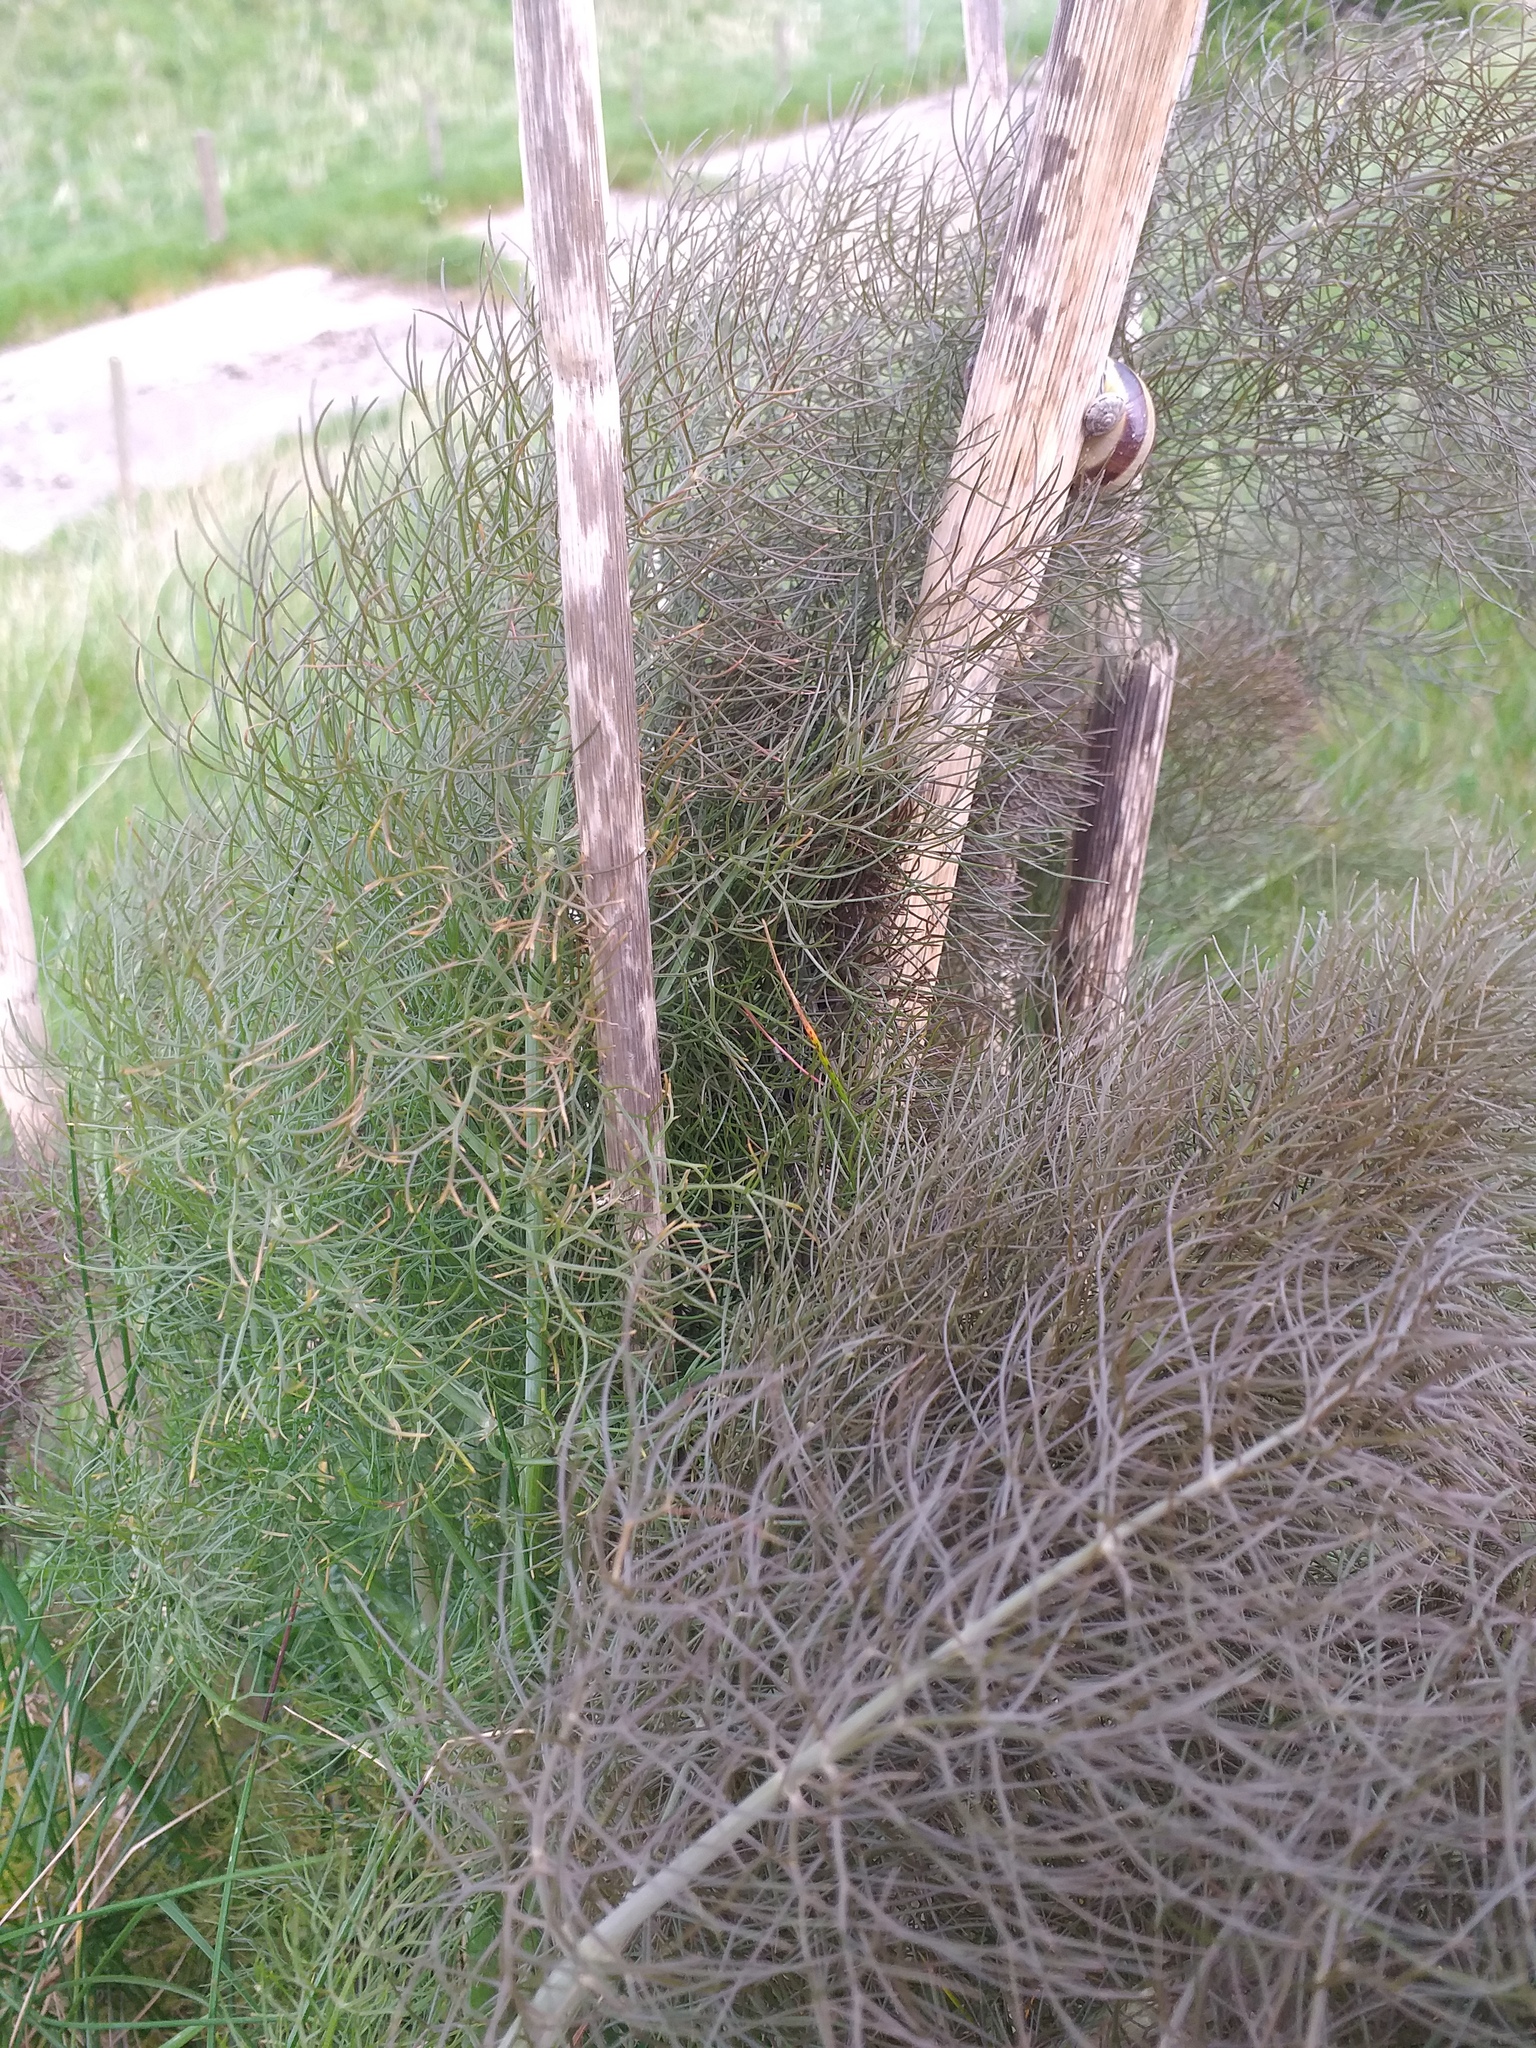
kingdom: Plantae
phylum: Tracheophyta
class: Magnoliopsida
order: Apiales
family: Apiaceae
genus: Foeniculum
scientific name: Foeniculum vulgare
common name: Fennel
